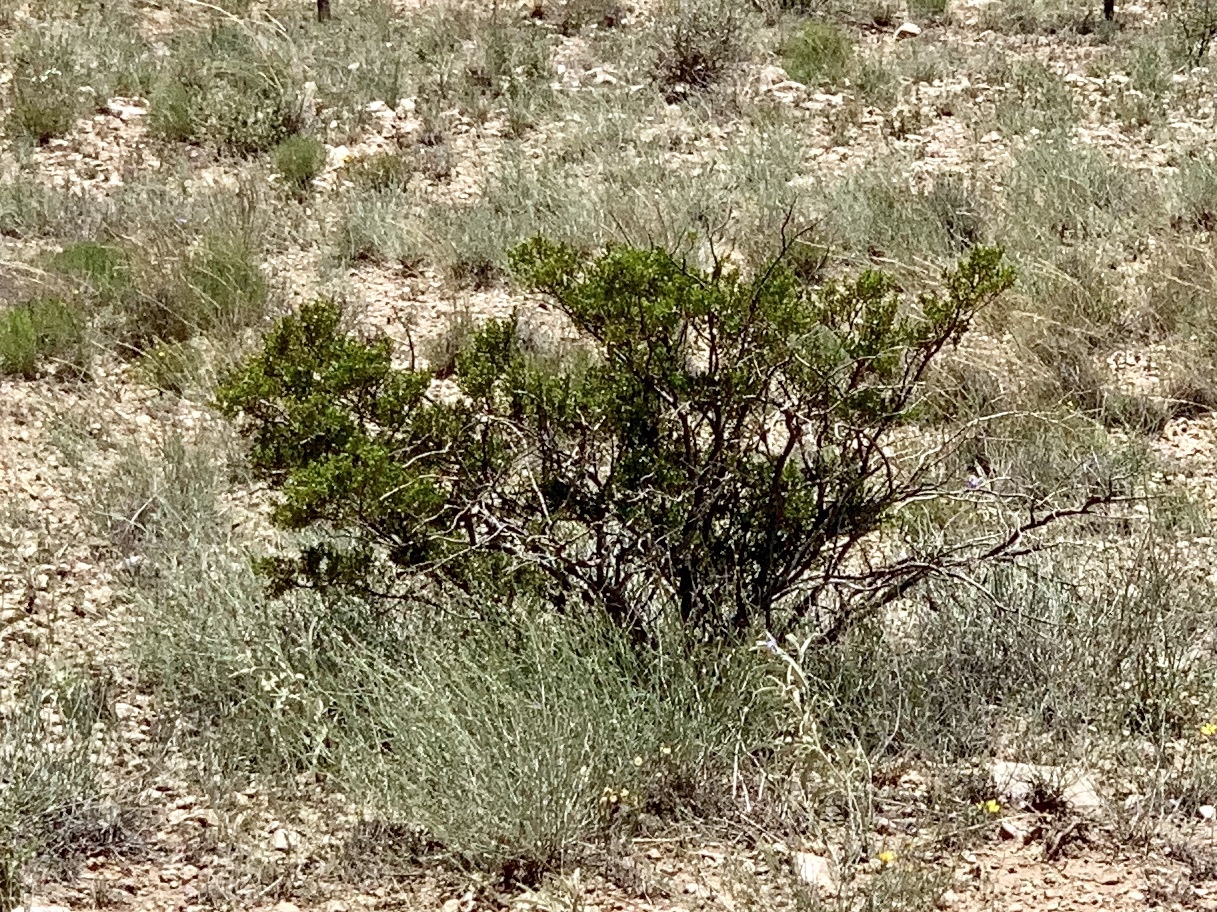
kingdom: Plantae
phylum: Tracheophyta
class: Magnoliopsida
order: Zygophyllales
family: Zygophyllaceae
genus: Larrea
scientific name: Larrea tridentata
